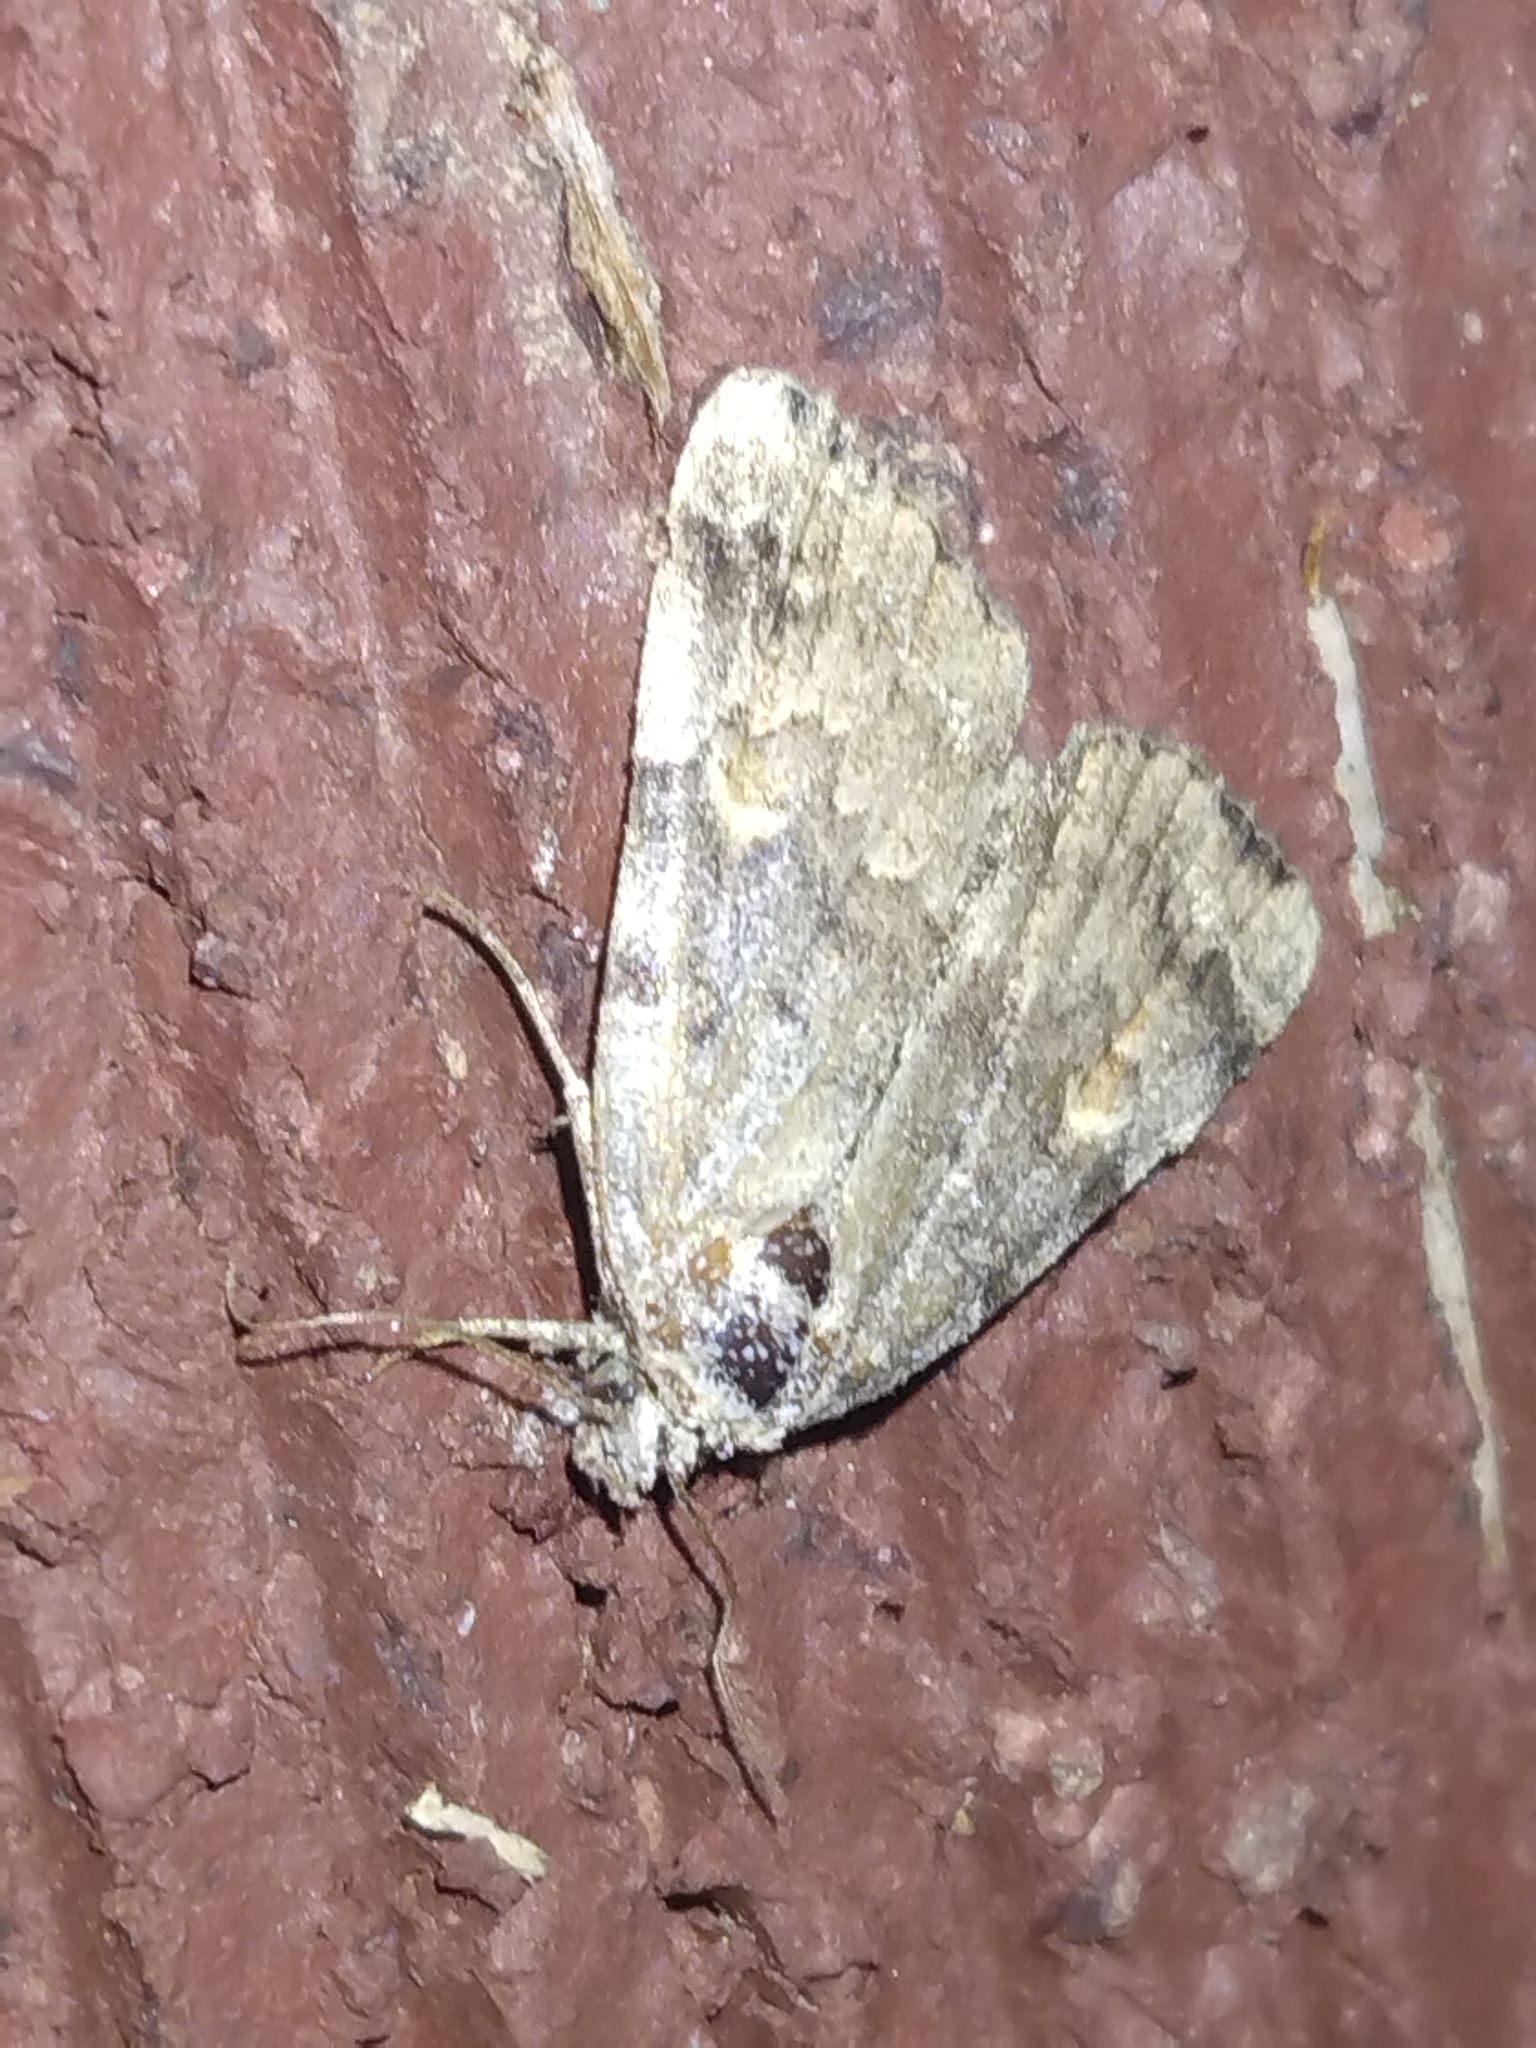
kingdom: Animalia
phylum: Arthropoda
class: Insecta
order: Lepidoptera
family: Erebidae
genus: Idia
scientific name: Idia americalis
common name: American idia moth
